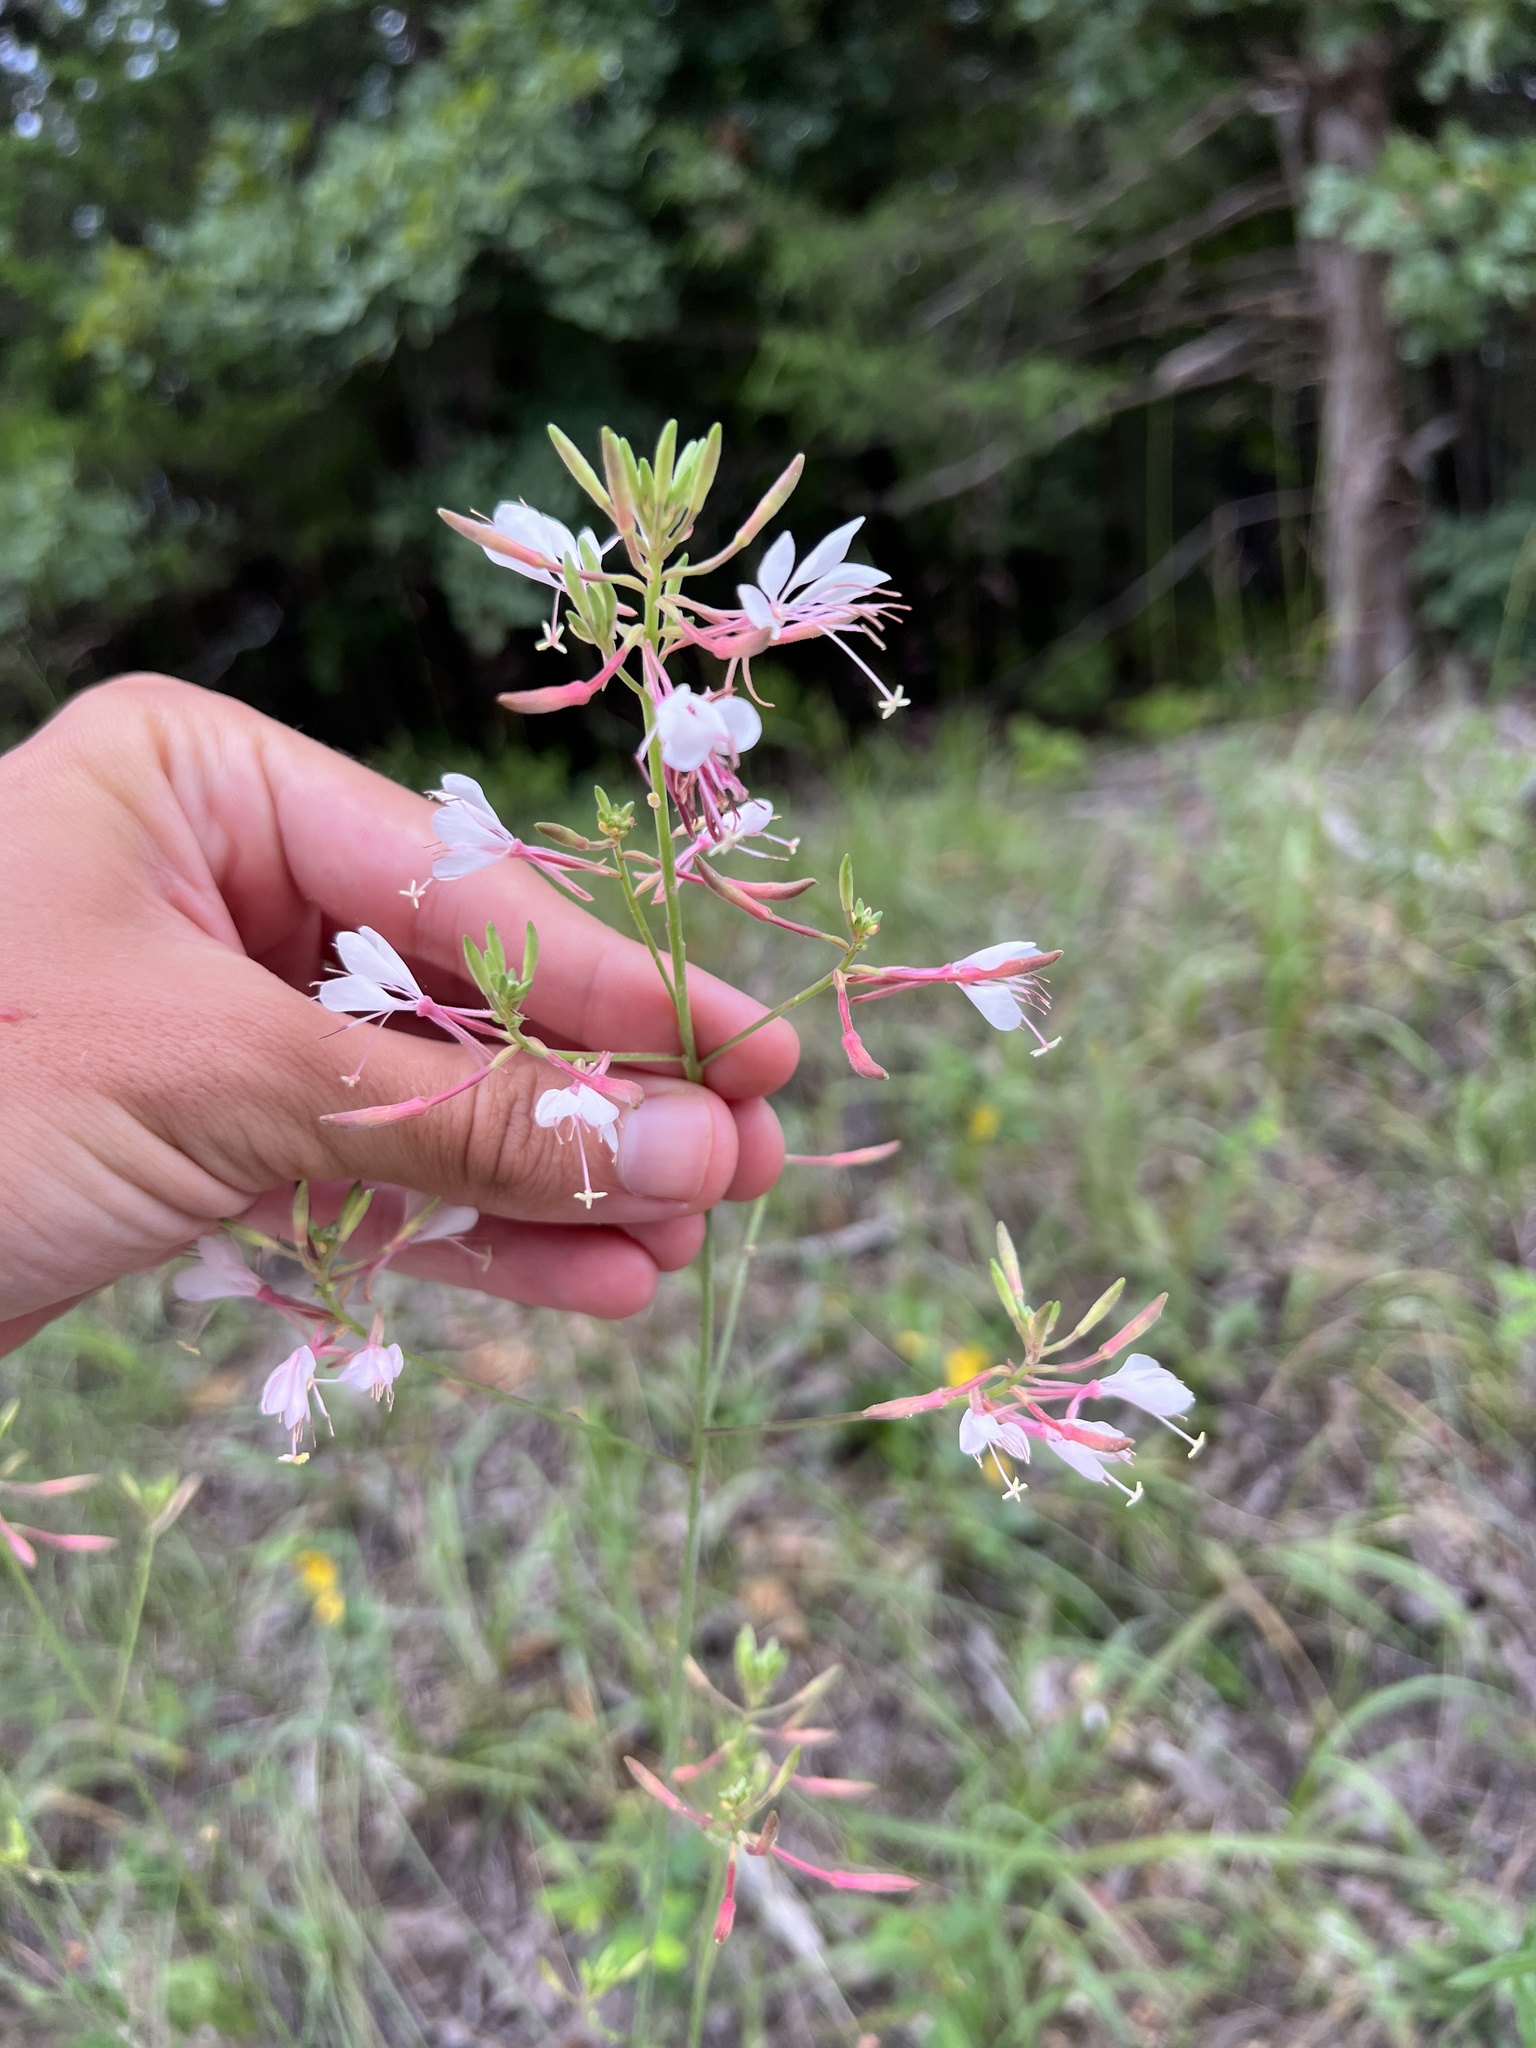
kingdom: Plantae
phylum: Tracheophyta
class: Magnoliopsida
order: Myrtales
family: Onagraceae
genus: Oenothera
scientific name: Oenothera filiformis
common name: Longflower beeblossom
